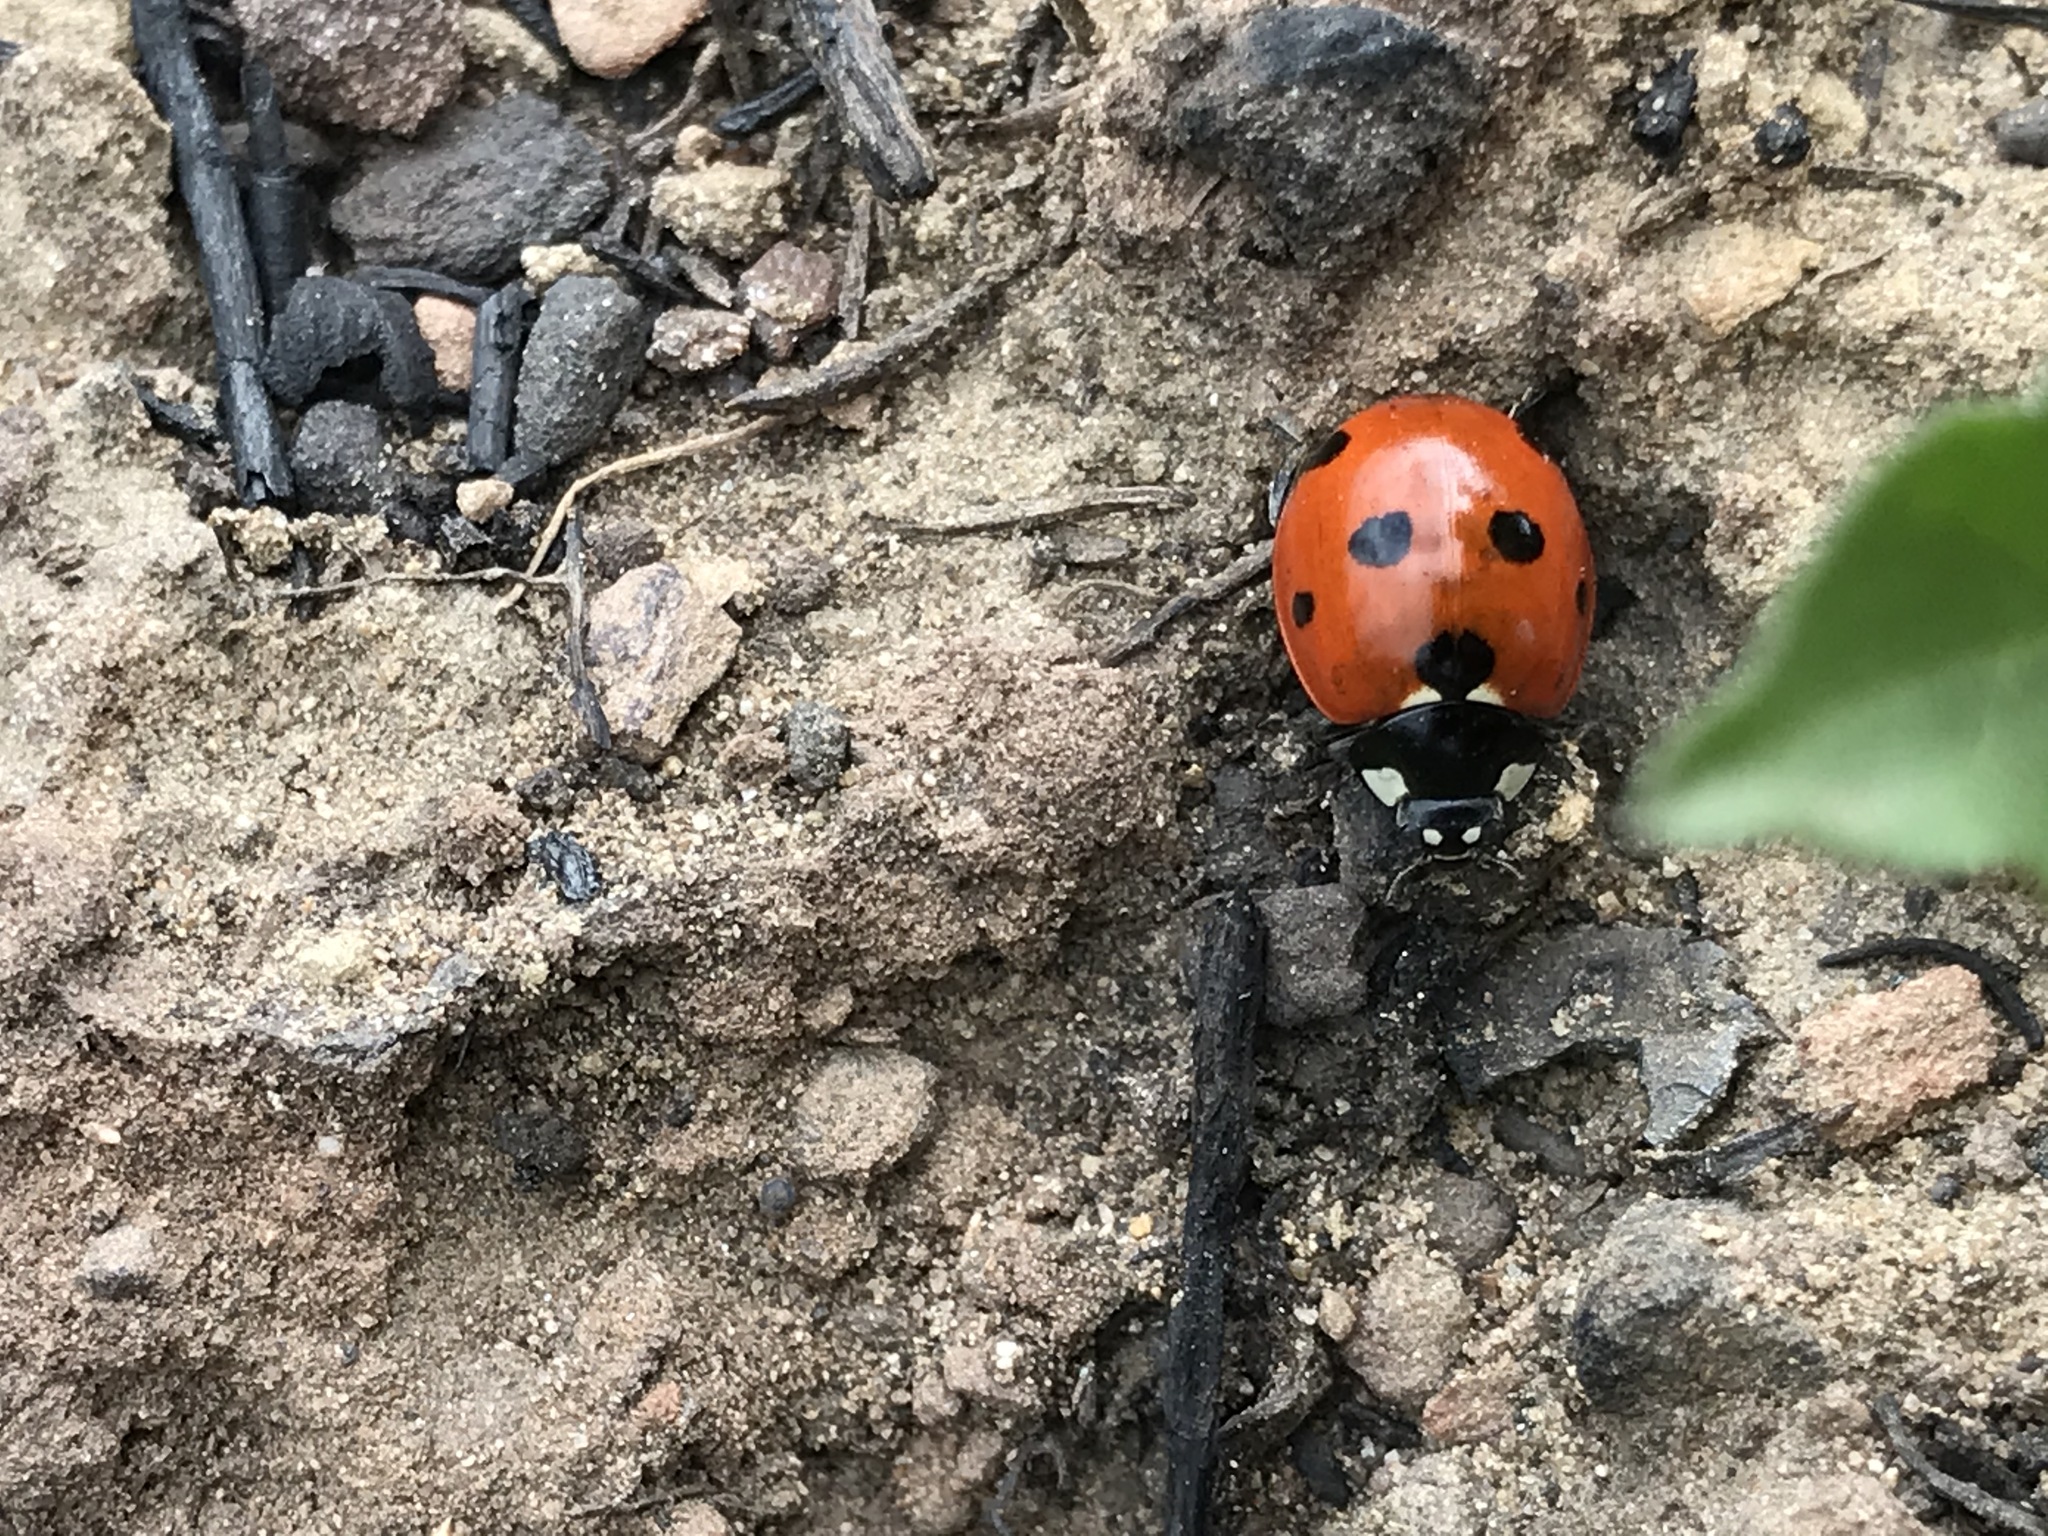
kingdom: Animalia
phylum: Arthropoda
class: Insecta
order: Coleoptera
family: Coccinellidae
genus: Coccinella
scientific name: Coccinella septempunctata
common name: Sevenspotted lady beetle
